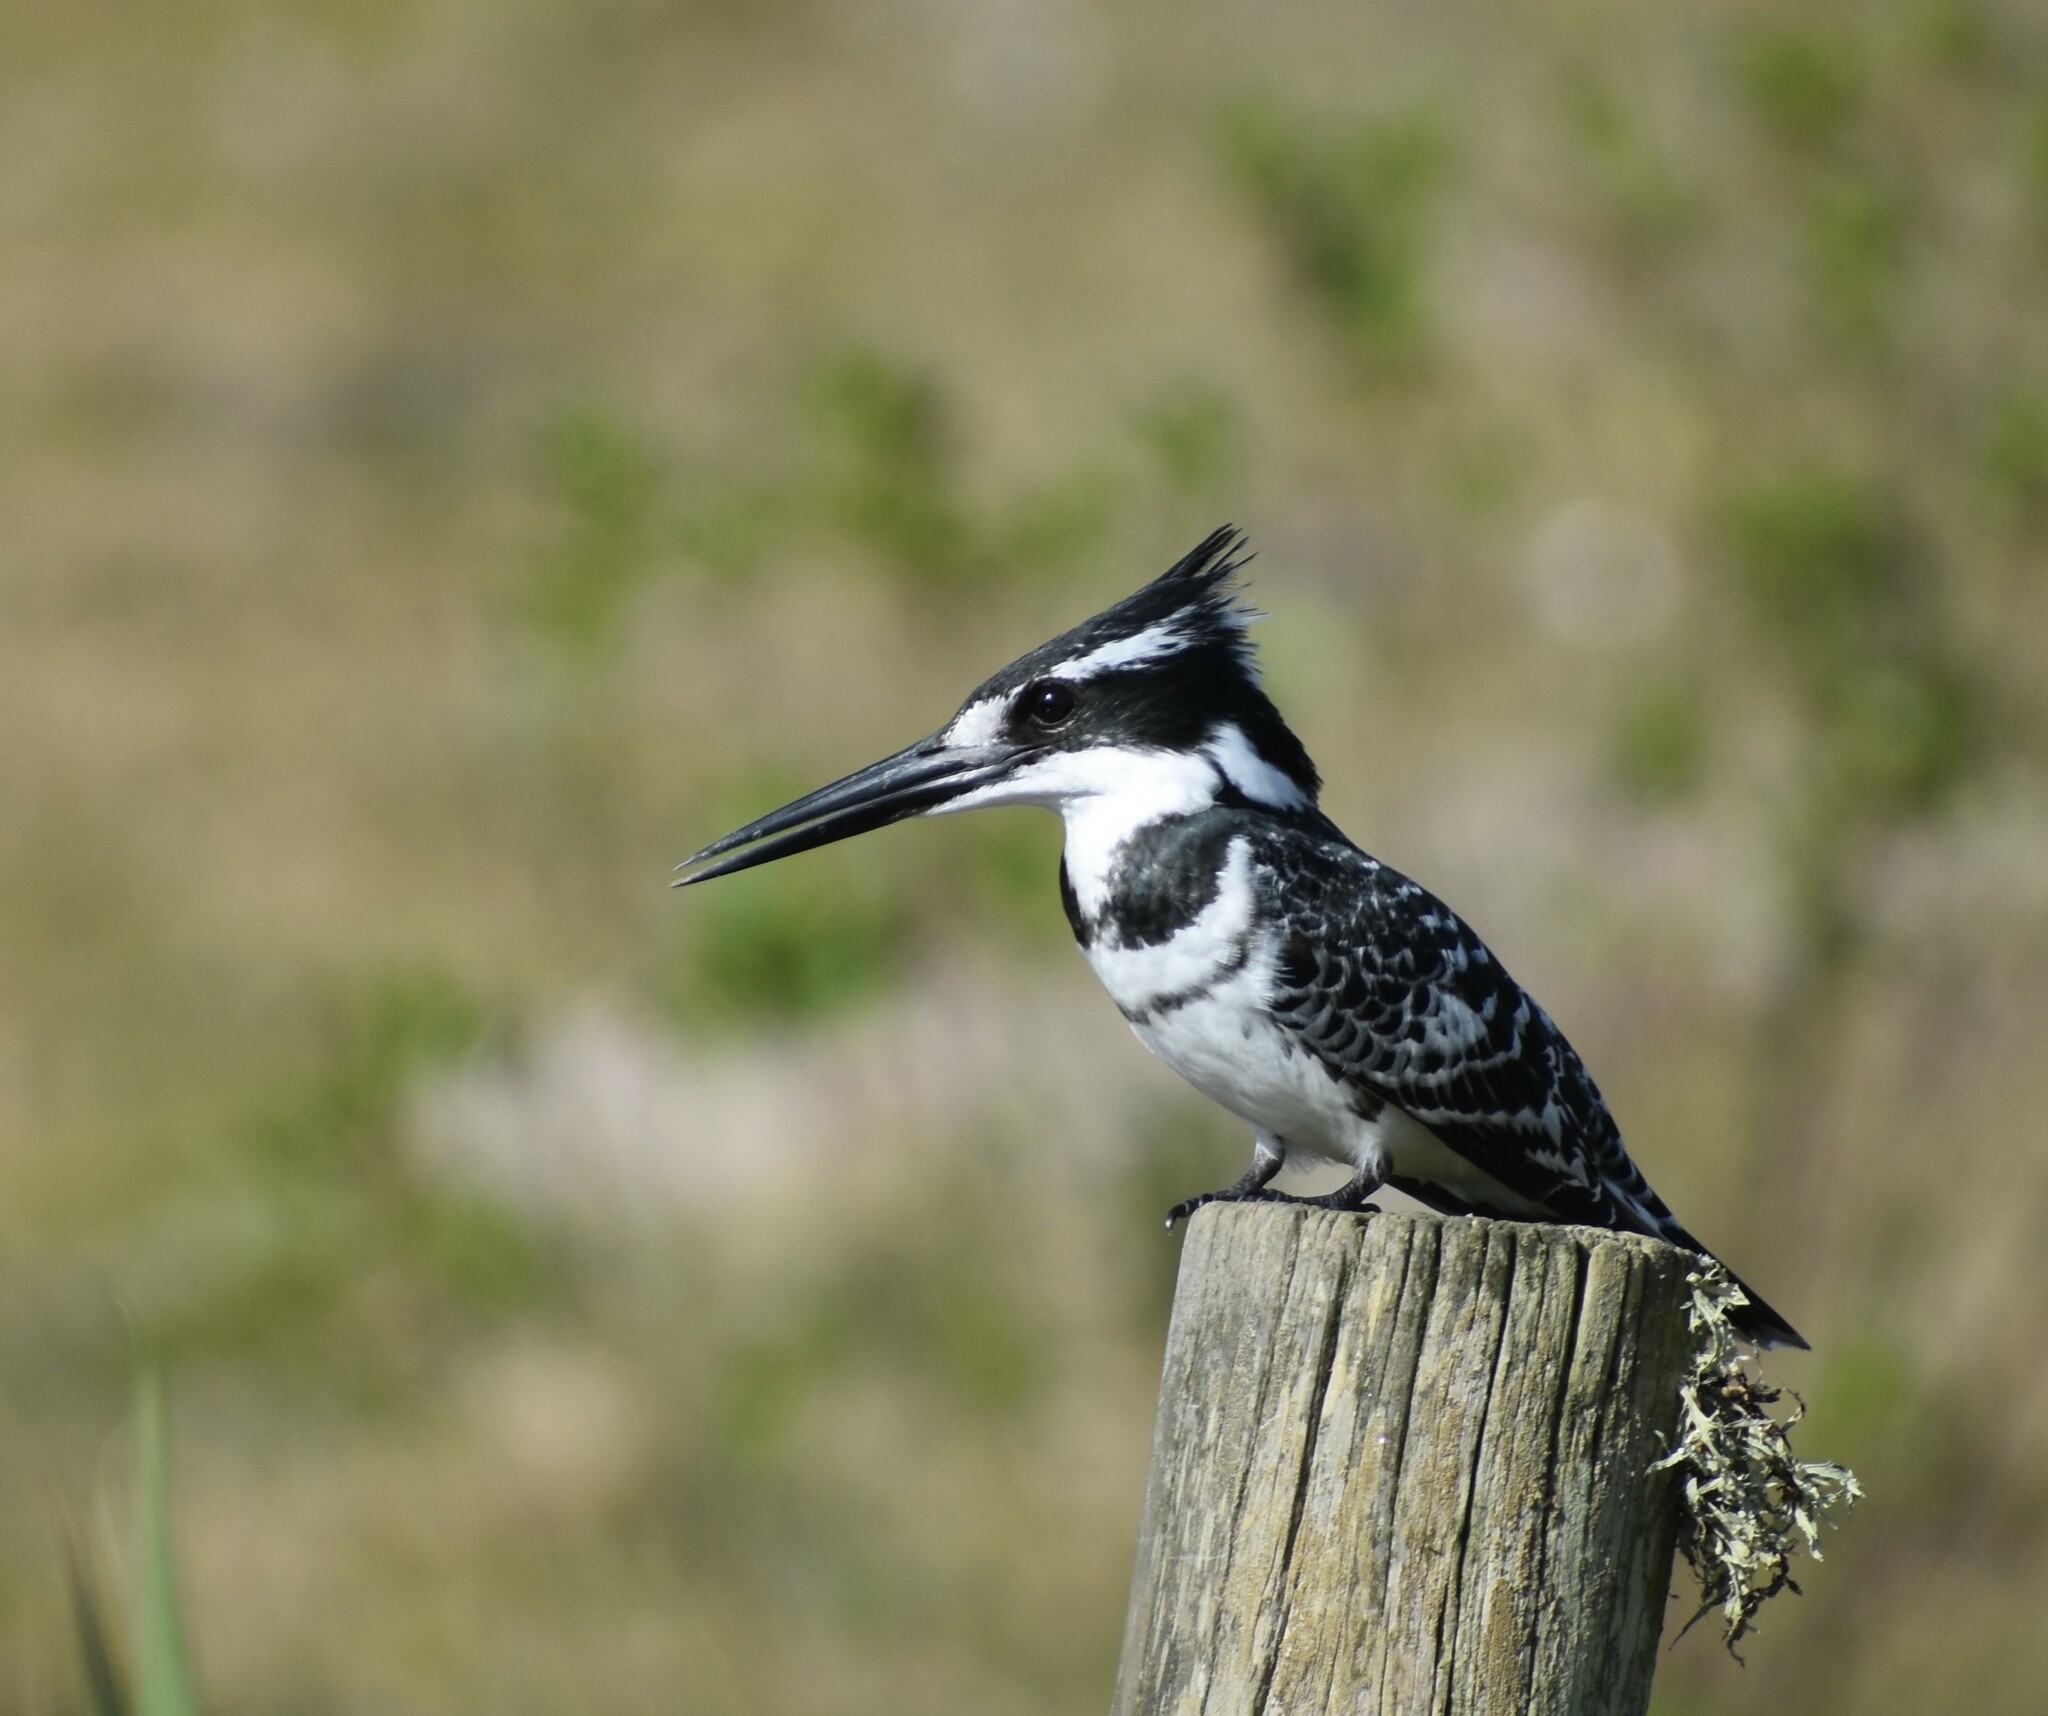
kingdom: Animalia
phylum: Chordata
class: Aves
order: Coraciiformes
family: Alcedinidae
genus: Ceryle
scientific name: Ceryle rudis
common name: Pied kingfisher
